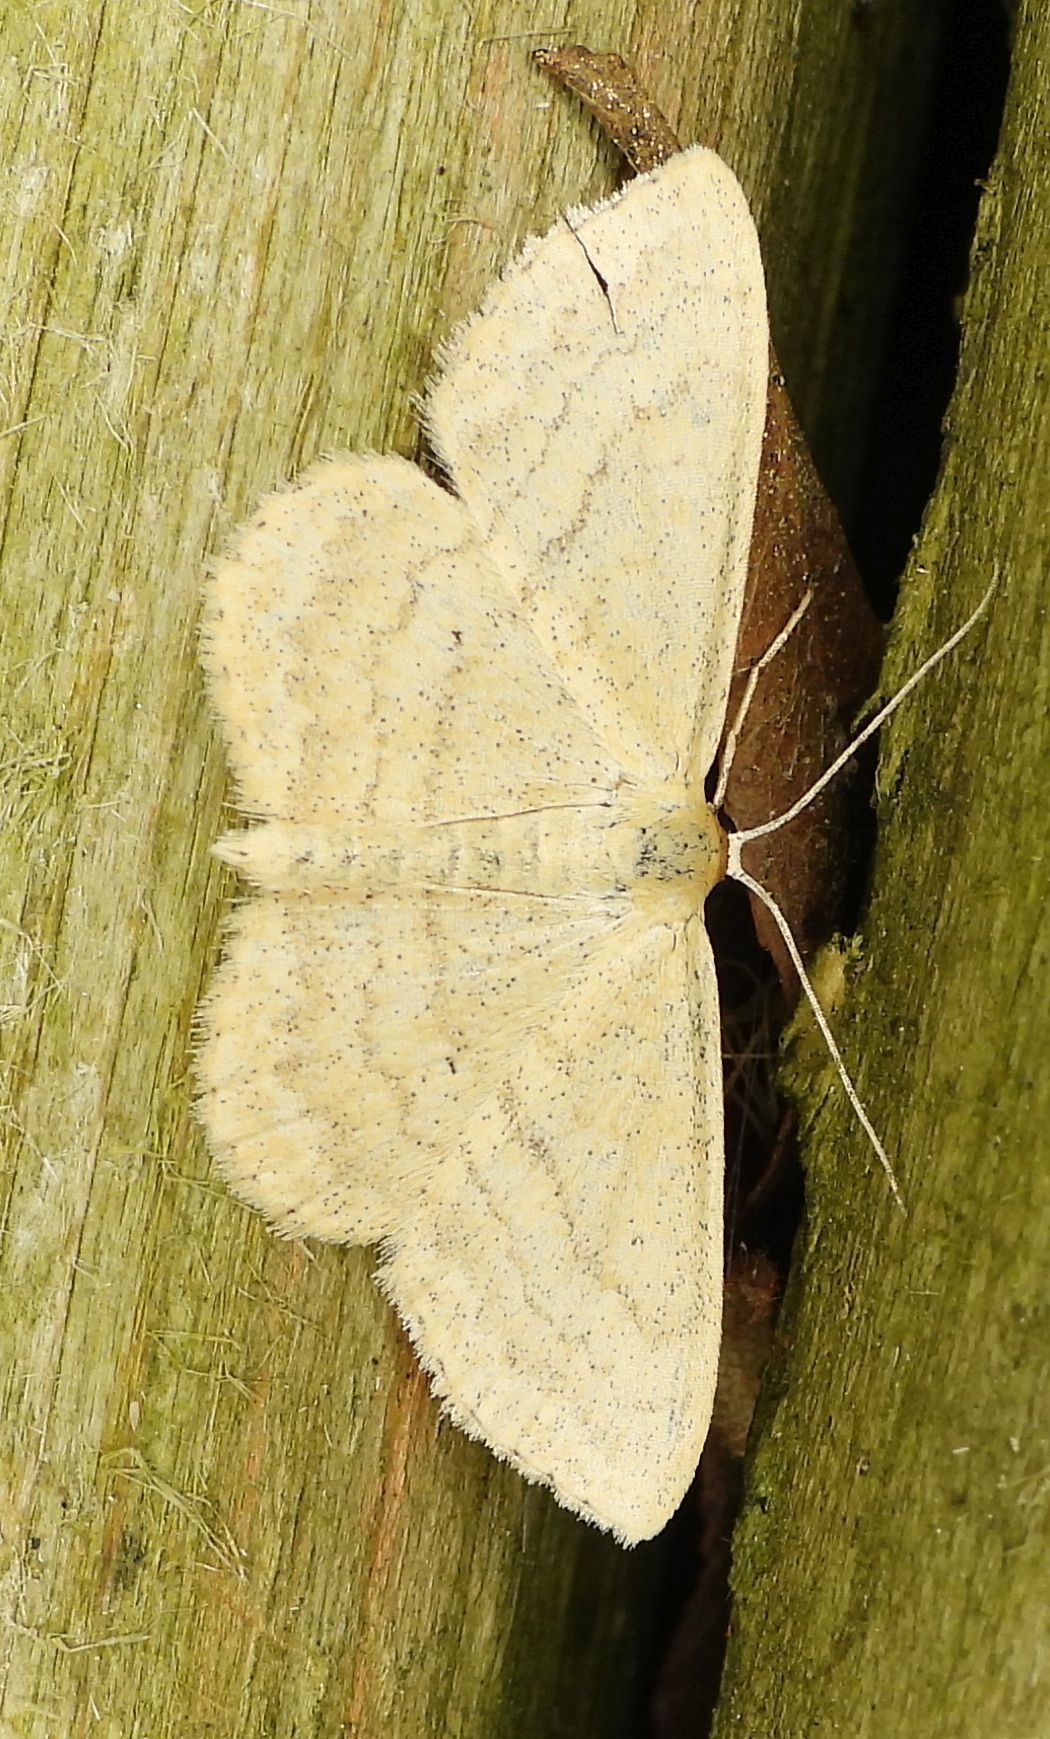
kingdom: Animalia
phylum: Arthropoda
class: Insecta
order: Lepidoptera
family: Geometridae
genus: Scopula
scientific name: Scopula inductata
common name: Soft-lined wave
